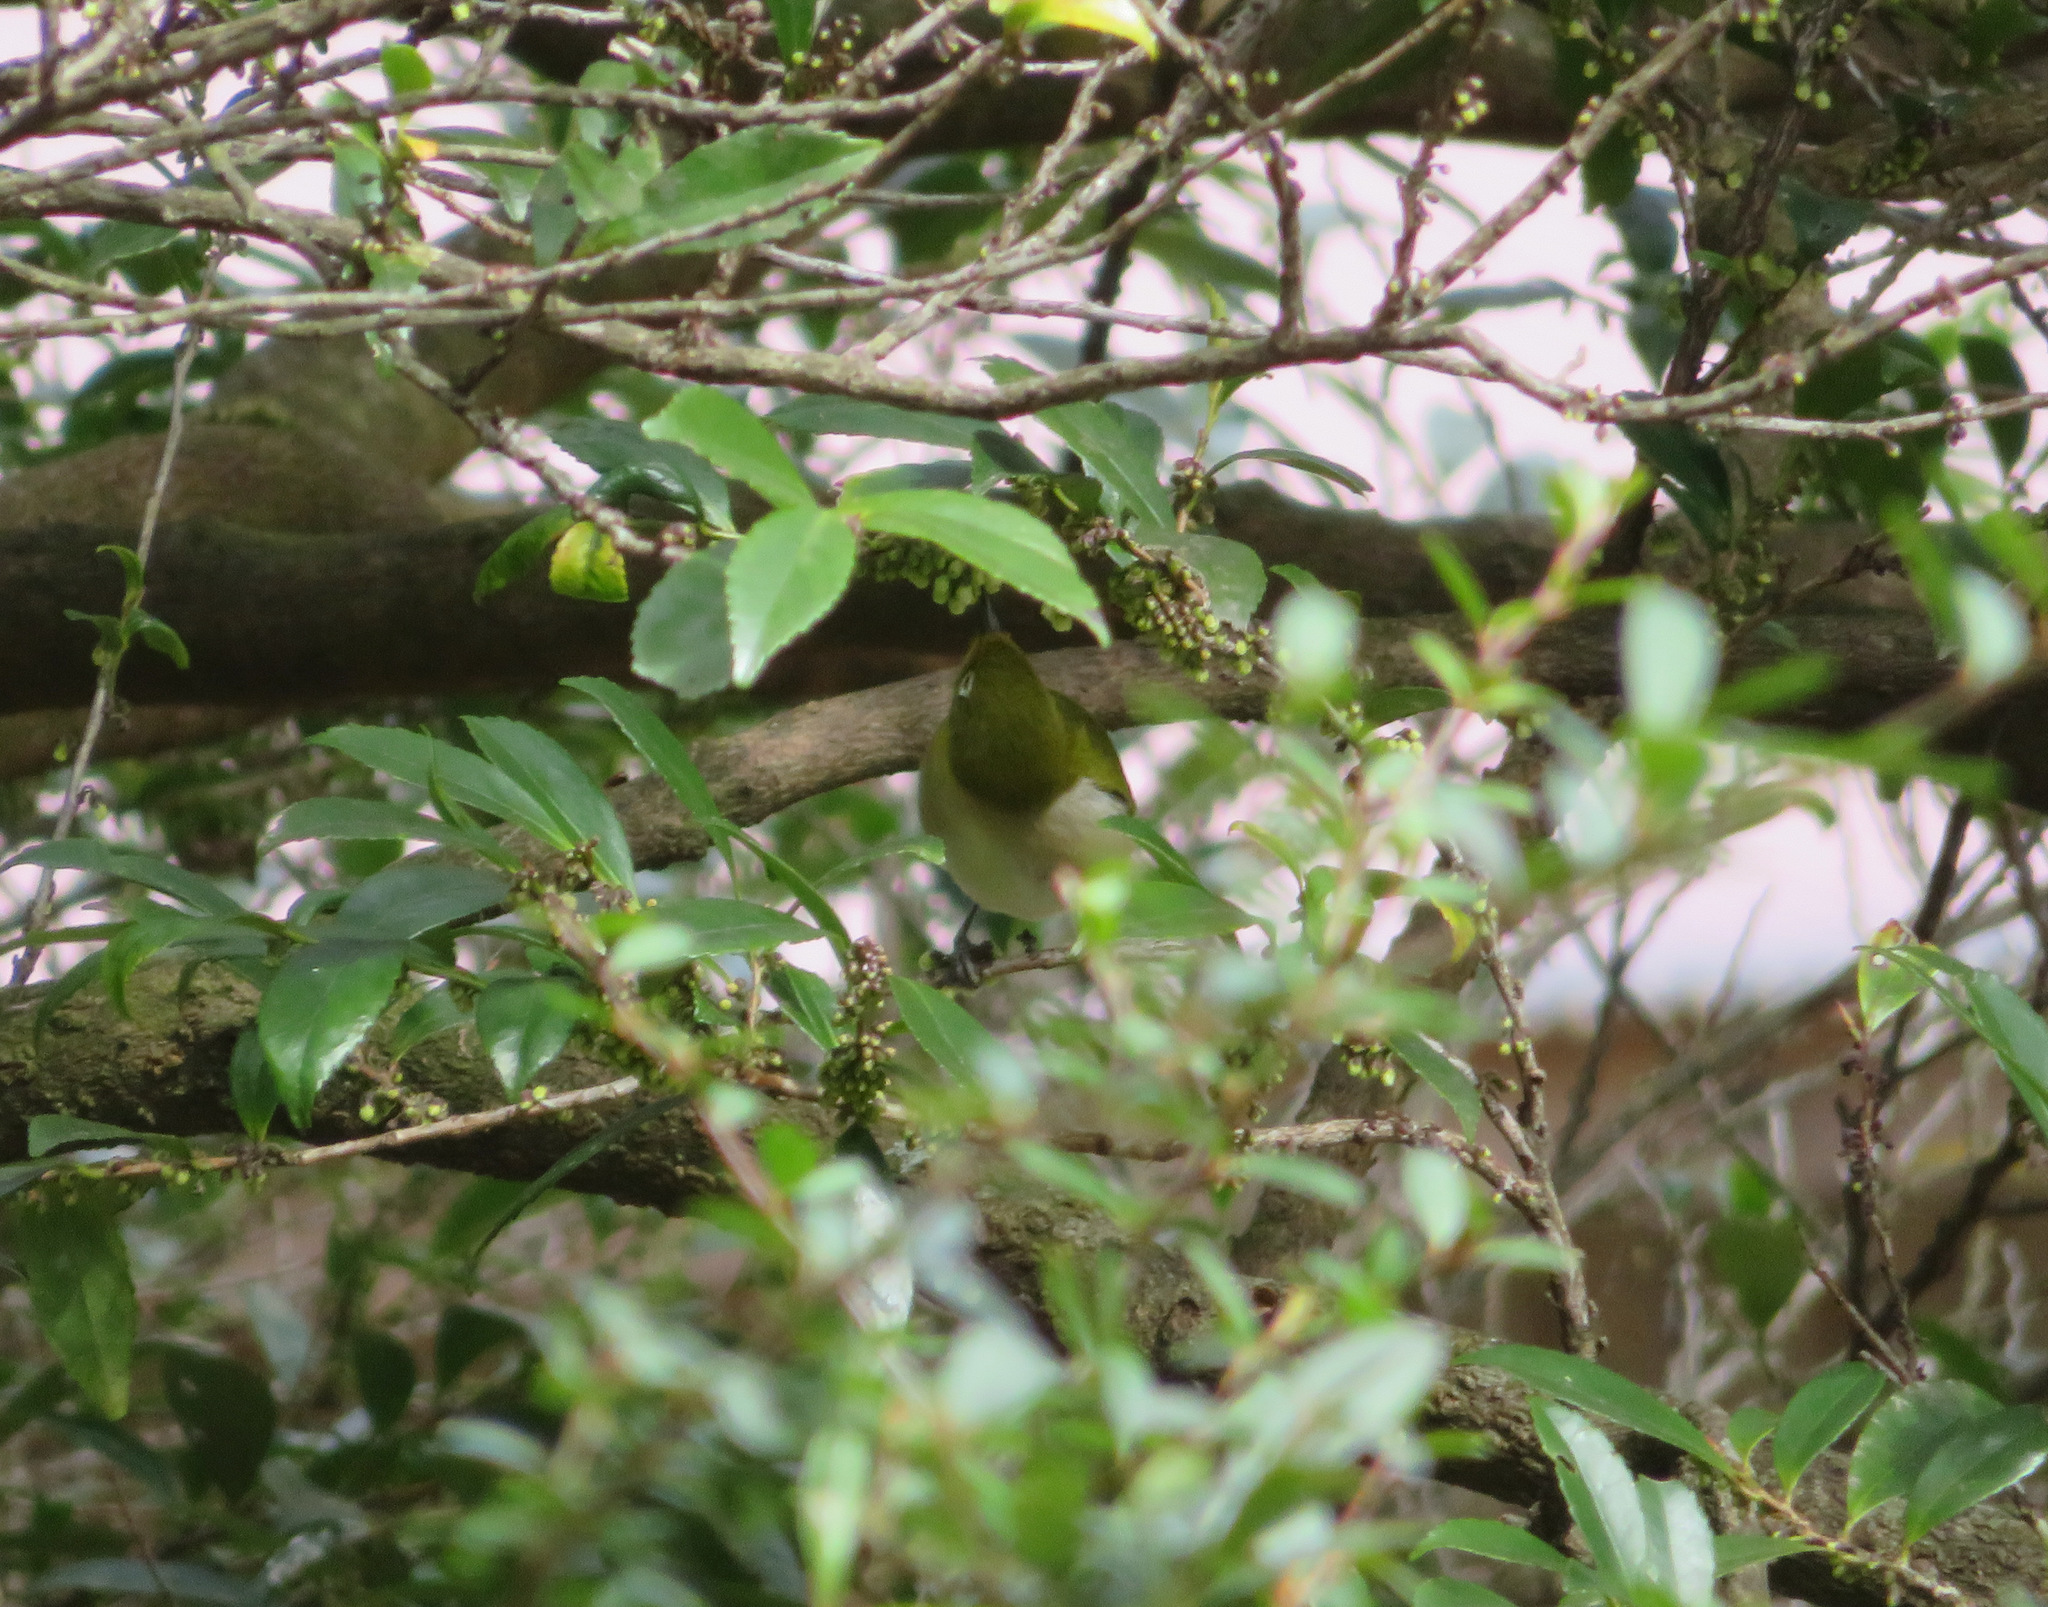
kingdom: Animalia
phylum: Chordata
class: Aves
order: Passeriformes
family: Zosteropidae
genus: Zosterops
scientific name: Zosterops japonicus
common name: Japanese white-eye
